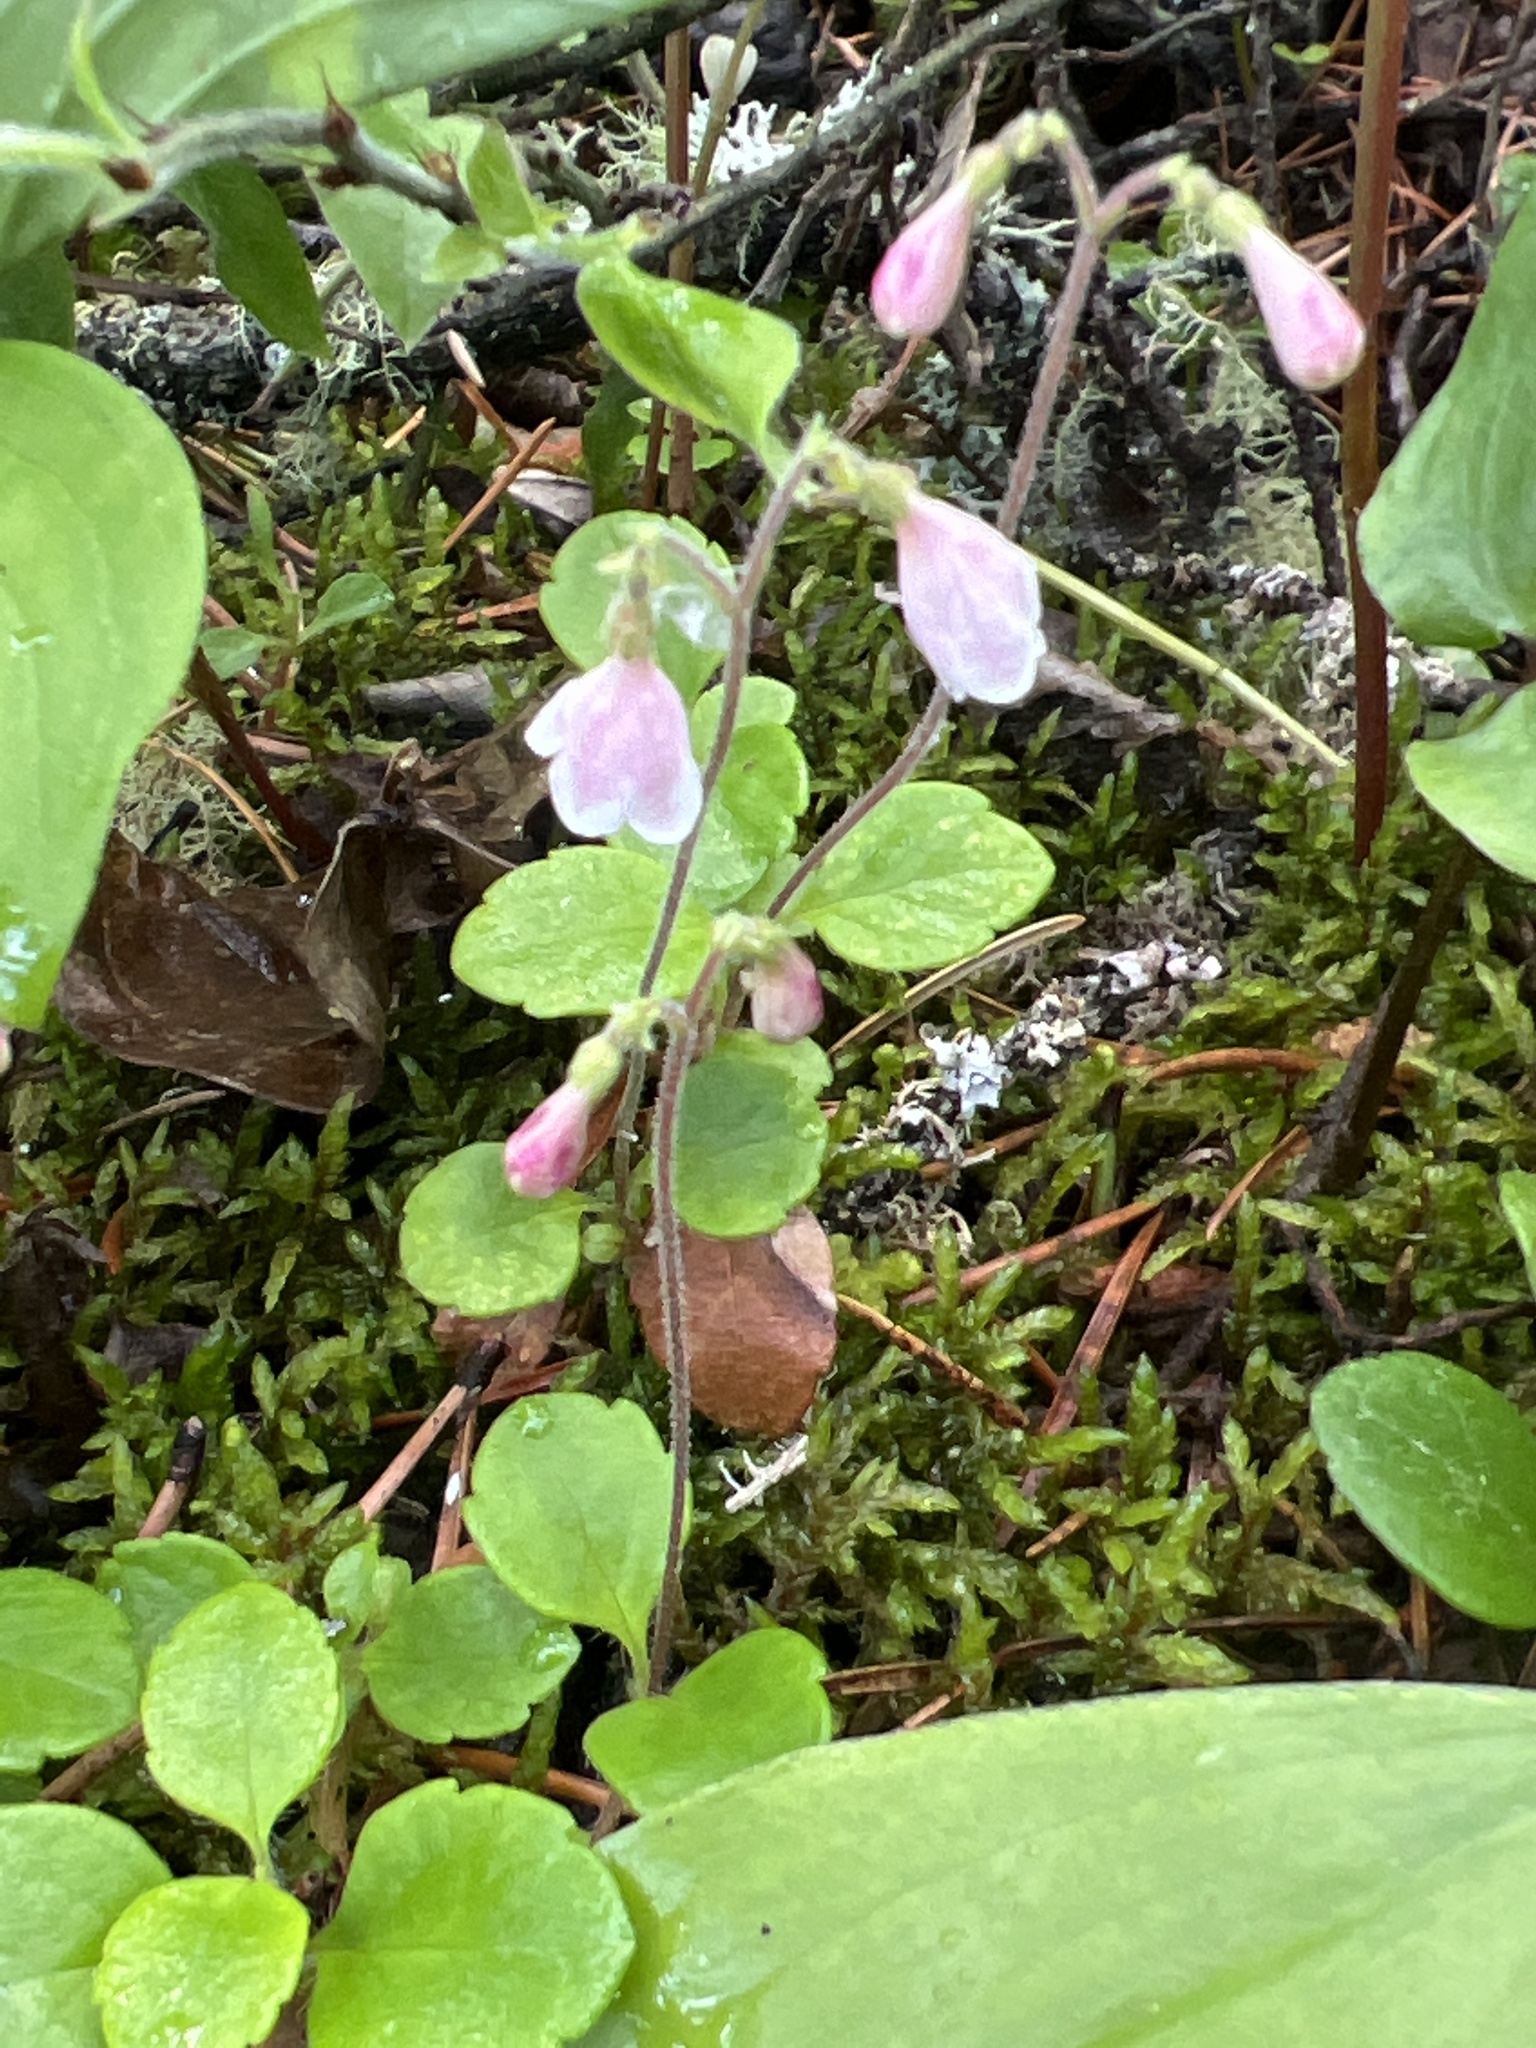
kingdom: Plantae
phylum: Tracheophyta
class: Magnoliopsida
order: Dipsacales
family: Caprifoliaceae
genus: Linnaea
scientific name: Linnaea borealis
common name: Twinflower
